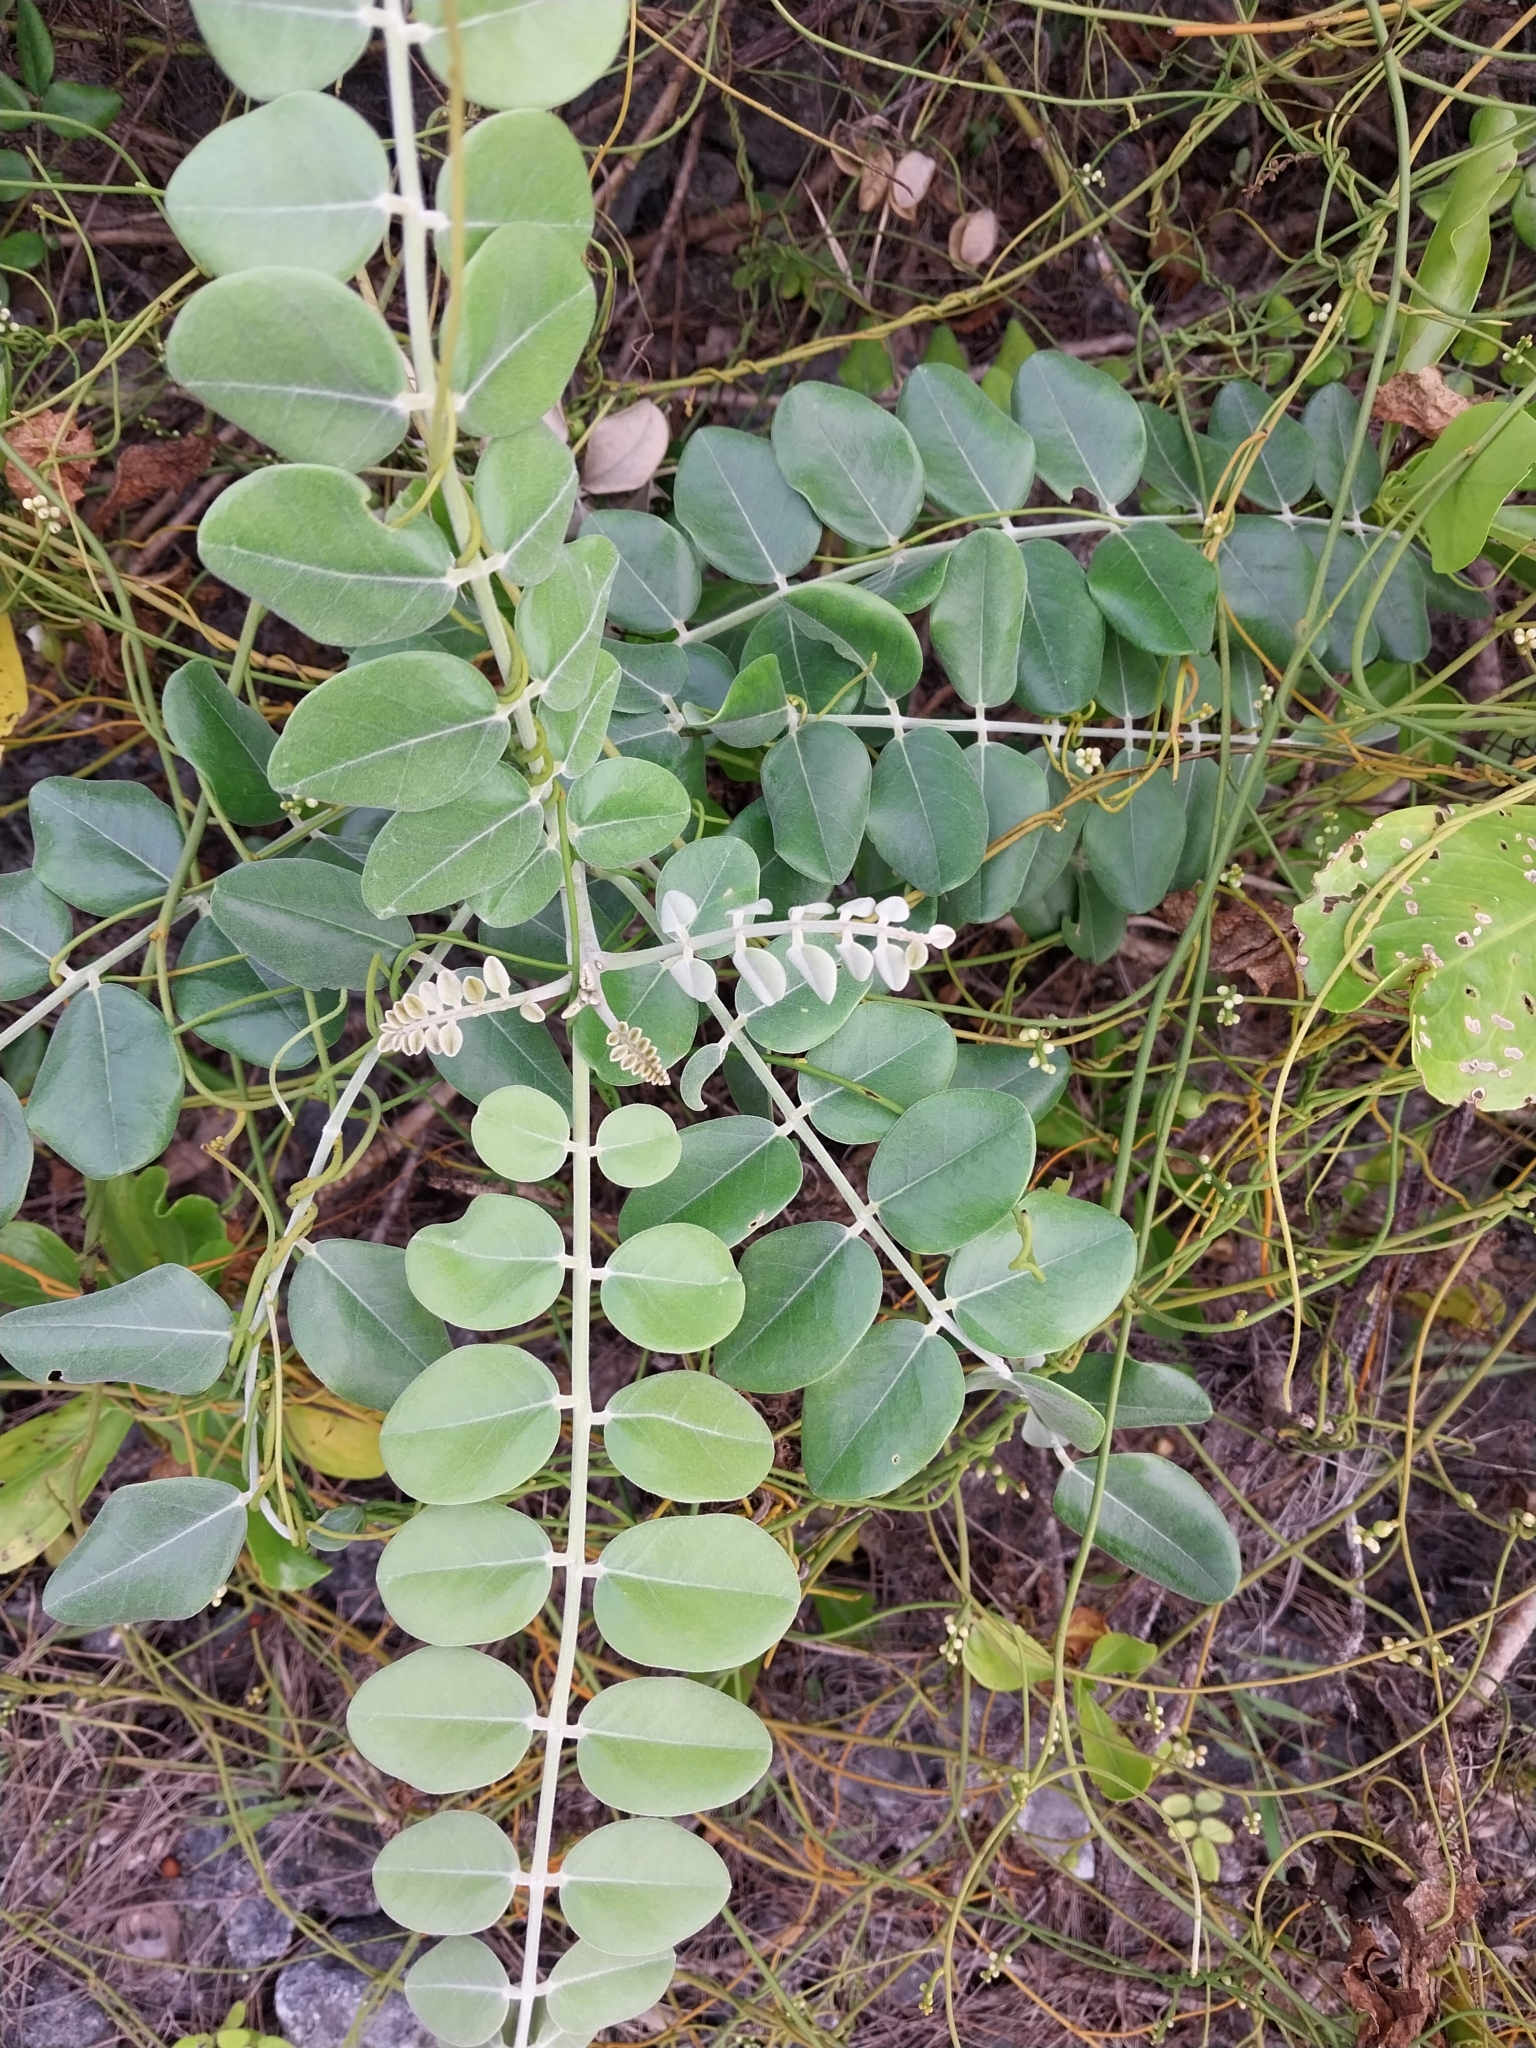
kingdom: Plantae
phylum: Tracheophyta
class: Magnoliopsida
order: Fabales
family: Fabaceae
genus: Sophora
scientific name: Sophora tomentosa
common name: Yellow necklacepod
